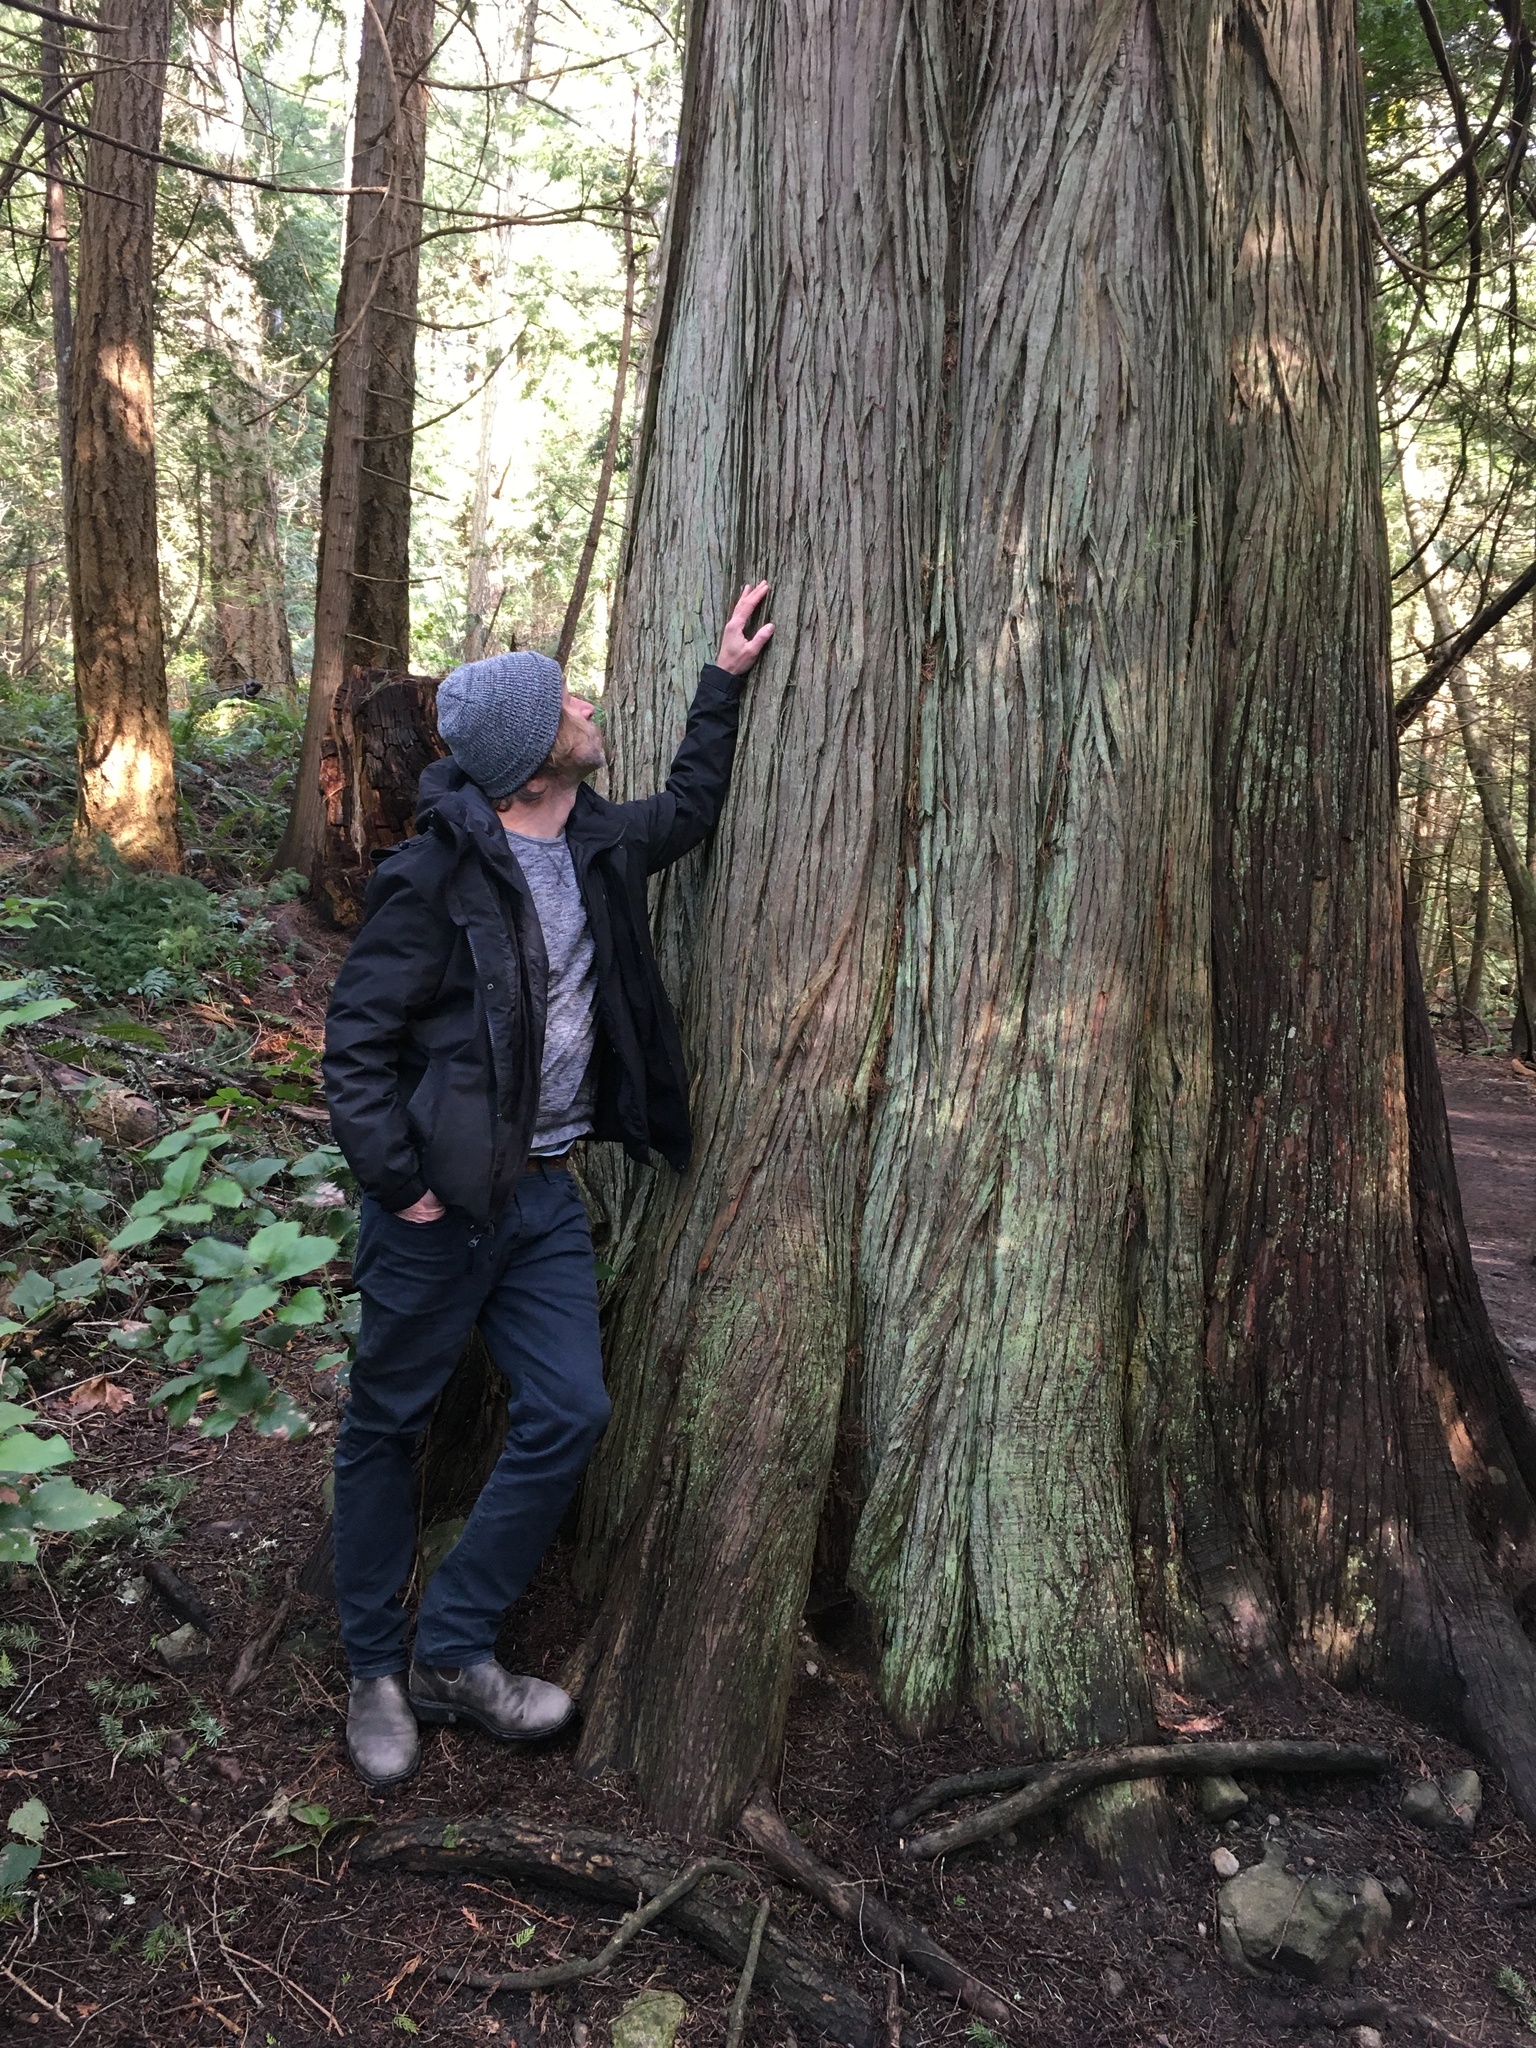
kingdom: Plantae
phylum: Tracheophyta
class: Pinopsida
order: Pinales
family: Cupressaceae
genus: Thuja
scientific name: Thuja plicata
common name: Western red-cedar
